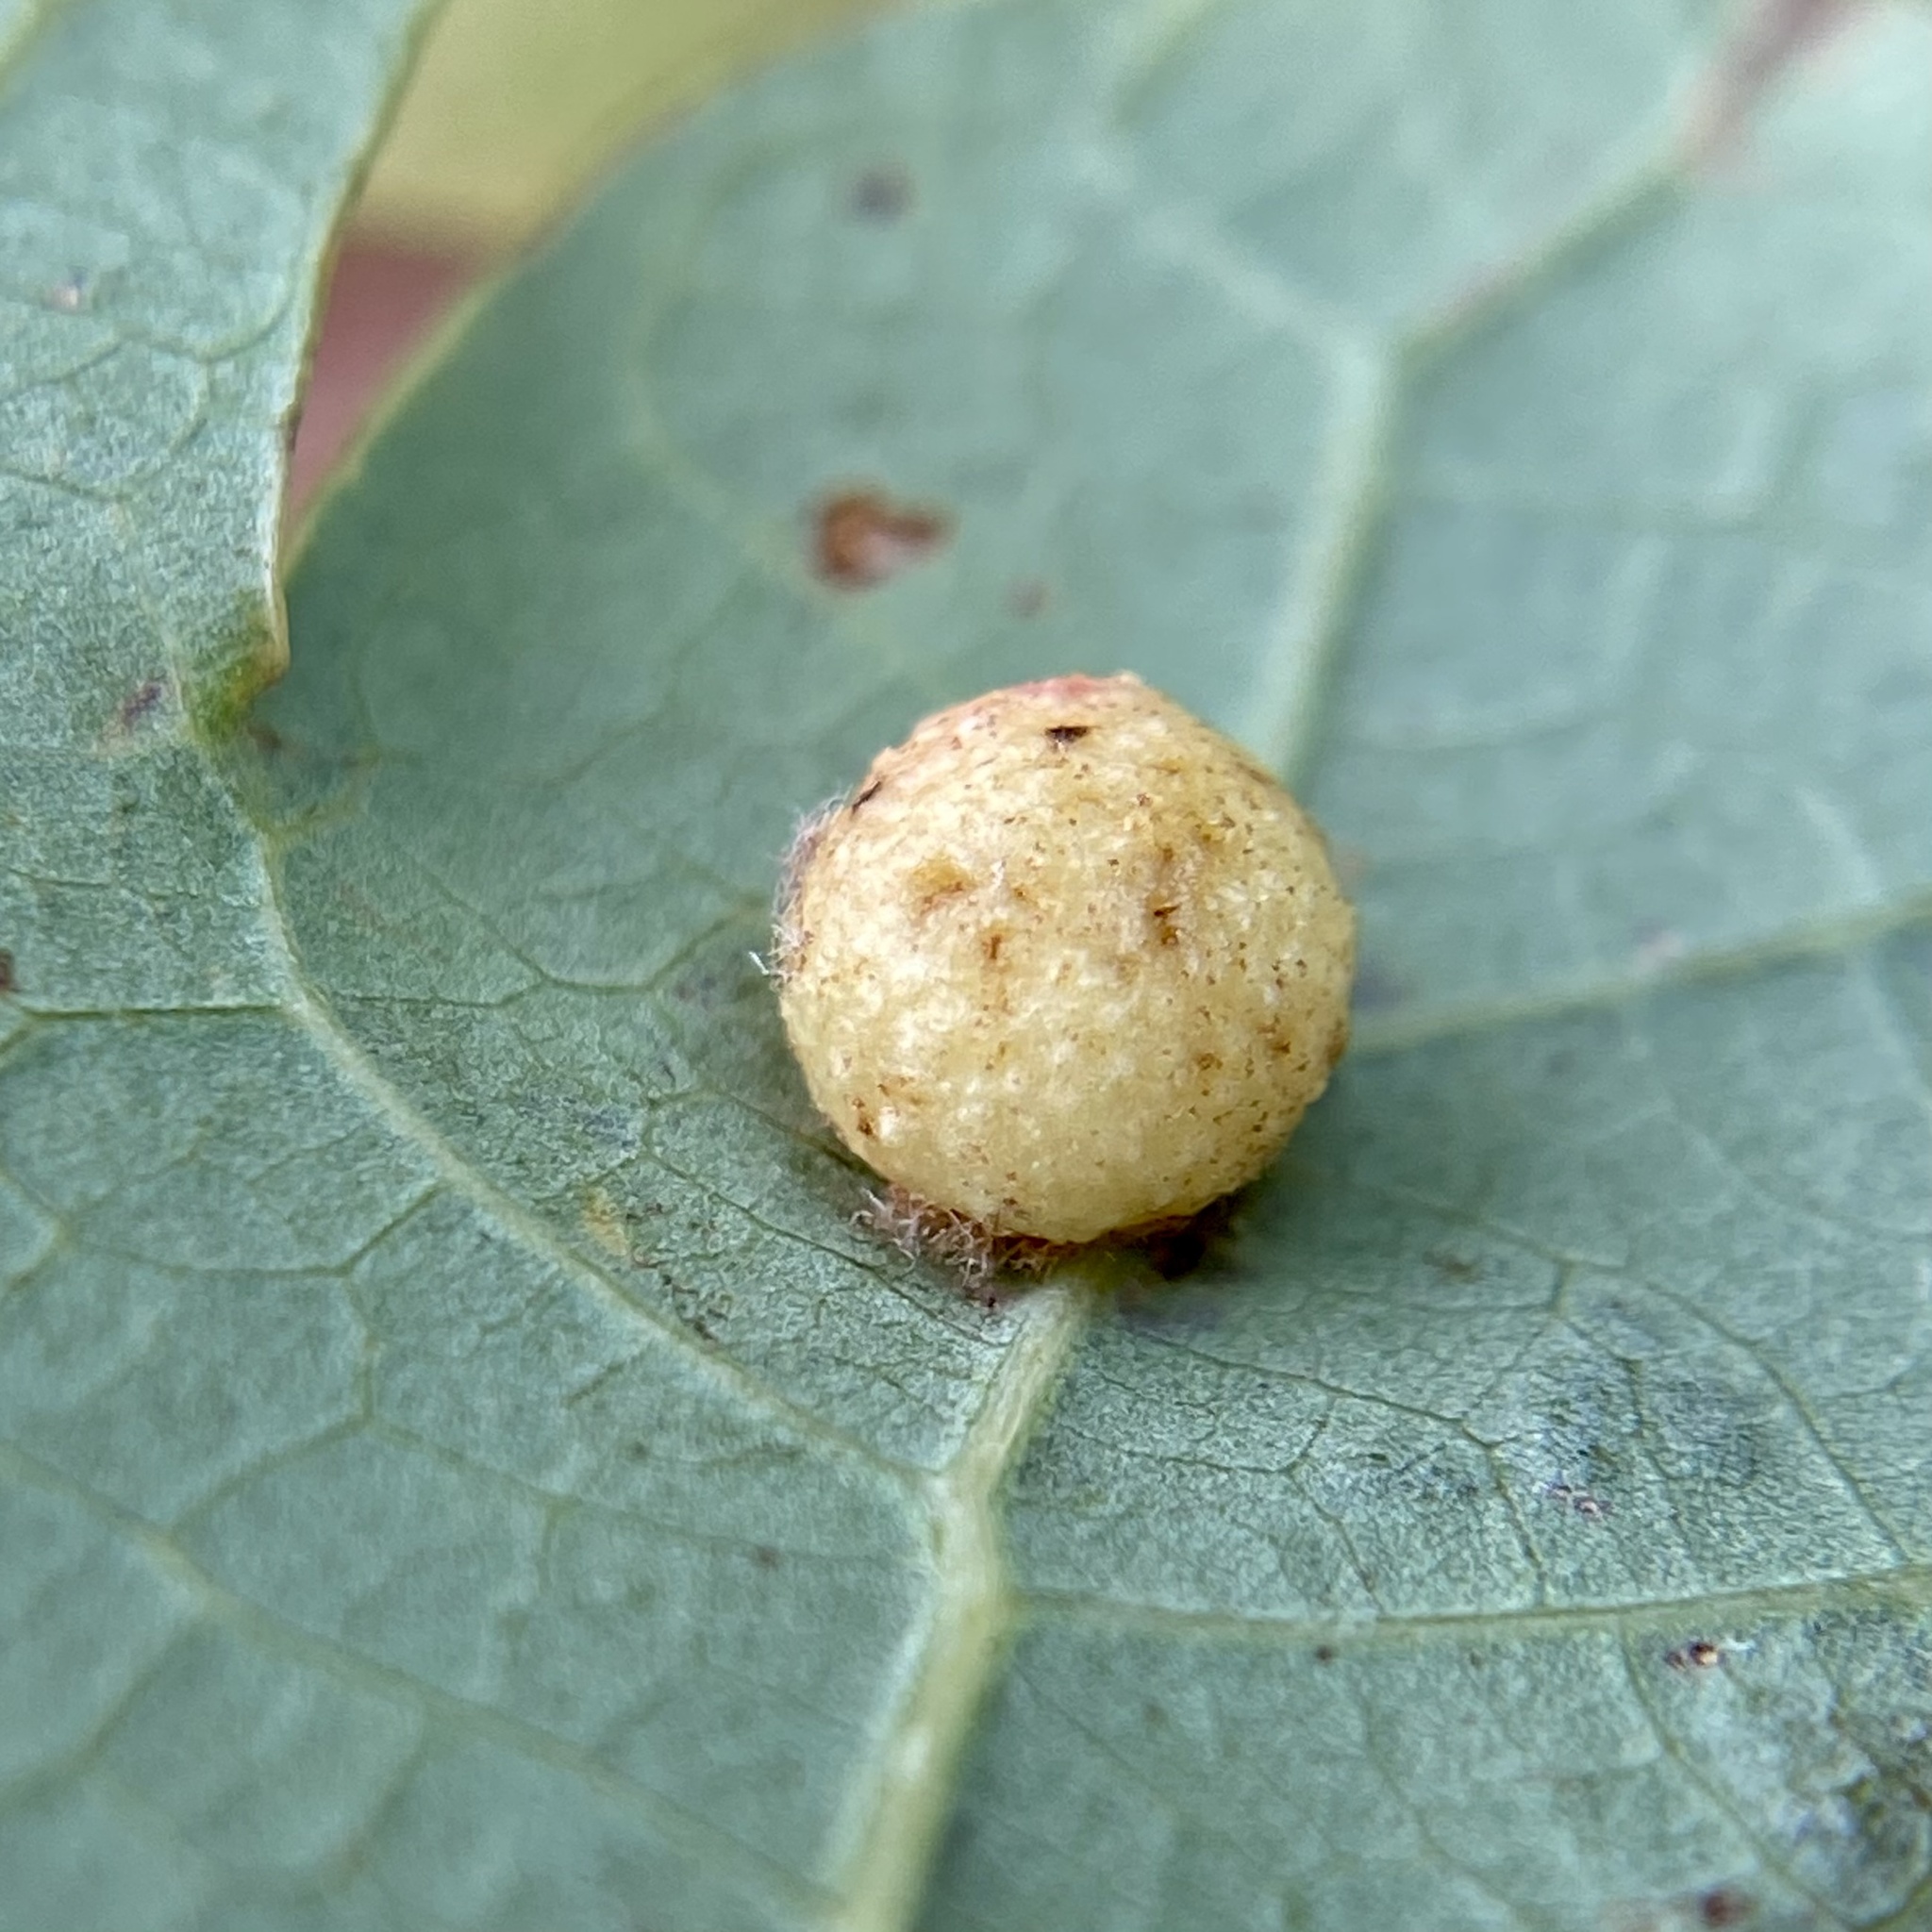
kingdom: Animalia
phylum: Arthropoda
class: Insecta
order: Hymenoptera
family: Cynipidae
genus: Philonix
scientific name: Philonix fulvicollis
